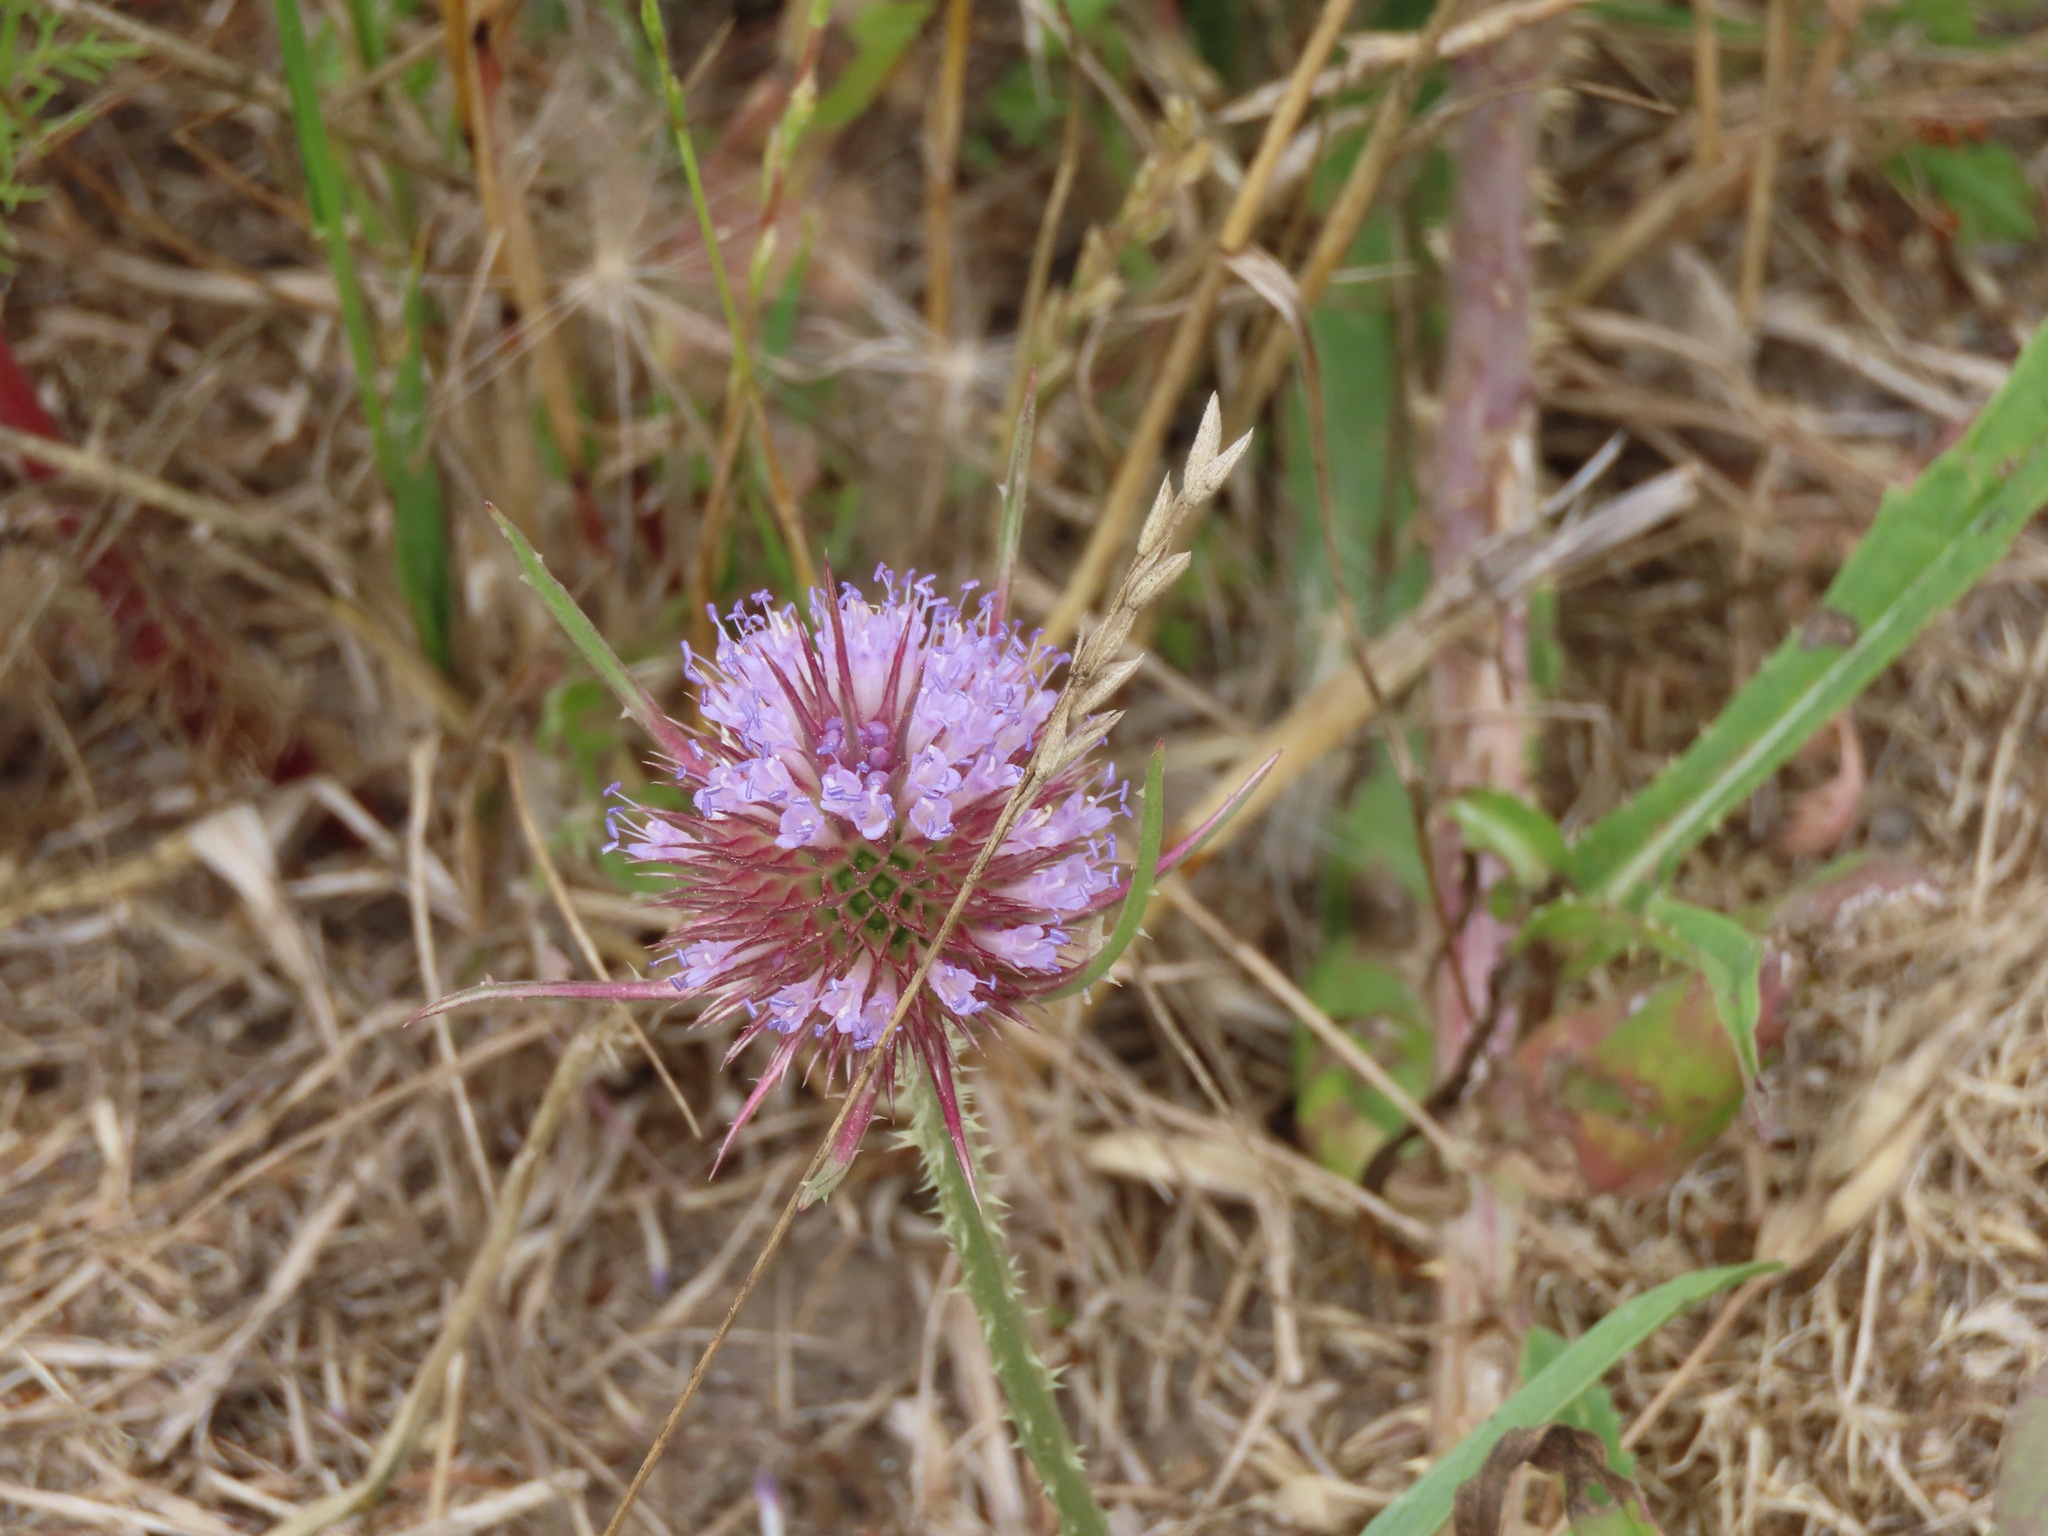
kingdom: Plantae
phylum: Tracheophyta
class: Magnoliopsida
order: Dipsacales
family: Caprifoliaceae
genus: Dipsacus
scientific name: Dipsacus fullonum
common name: Teasel
